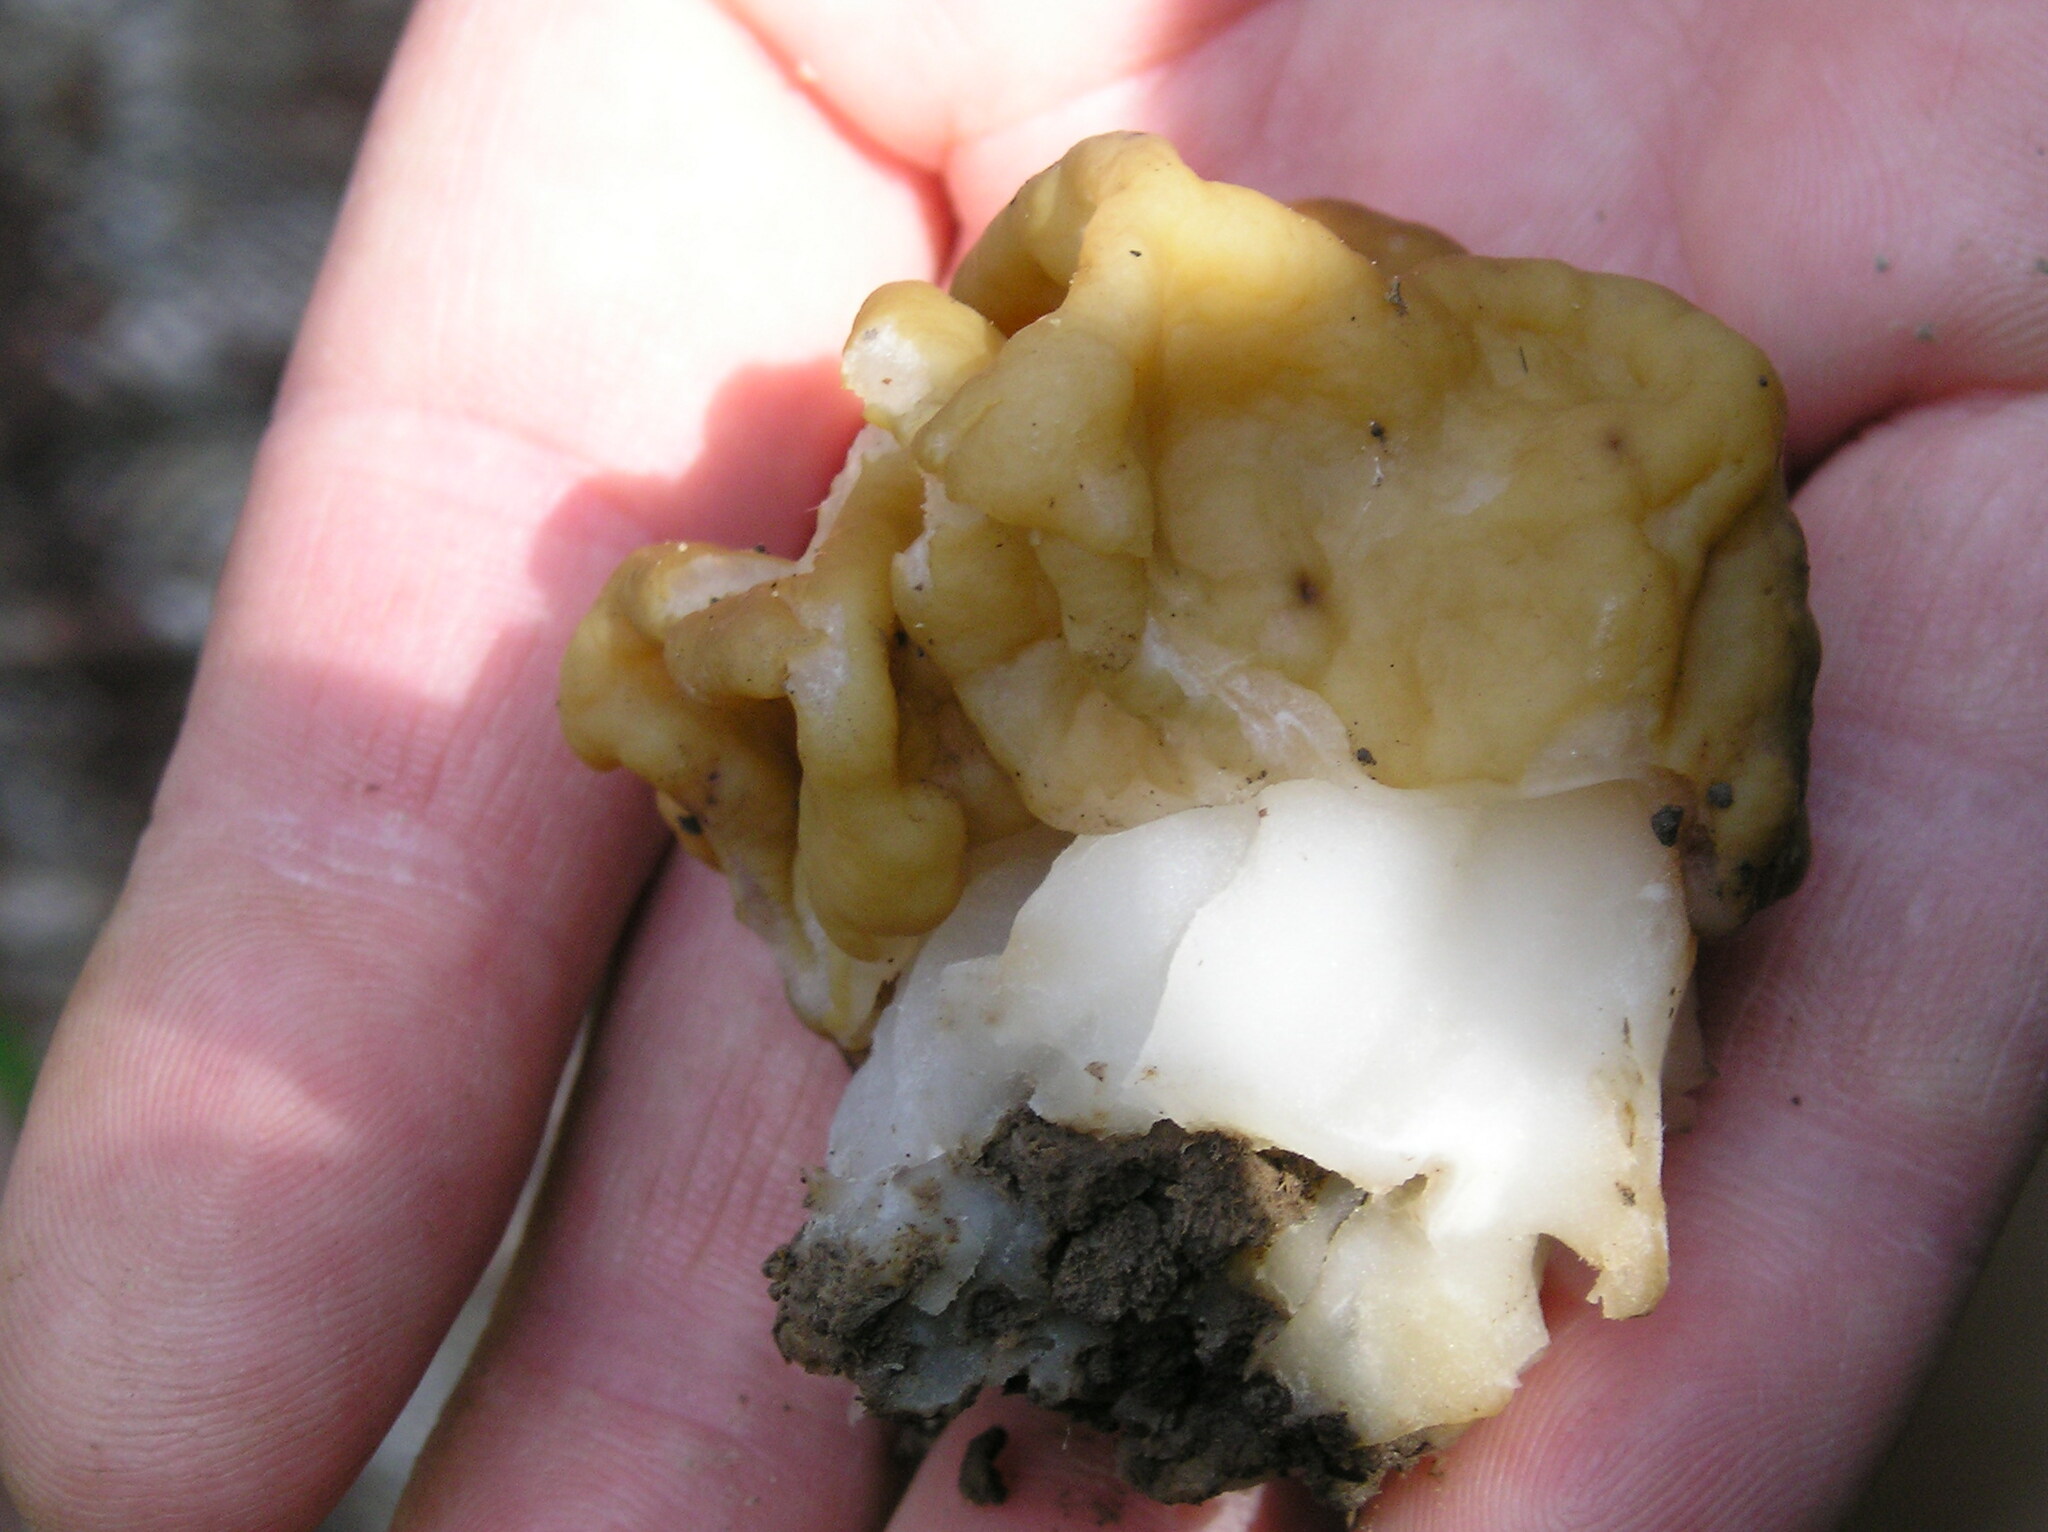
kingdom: Fungi
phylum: Ascomycota
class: Pezizomycetes
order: Pezizales
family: Discinaceae
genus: Gyromitra
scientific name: Gyromitra gigas
